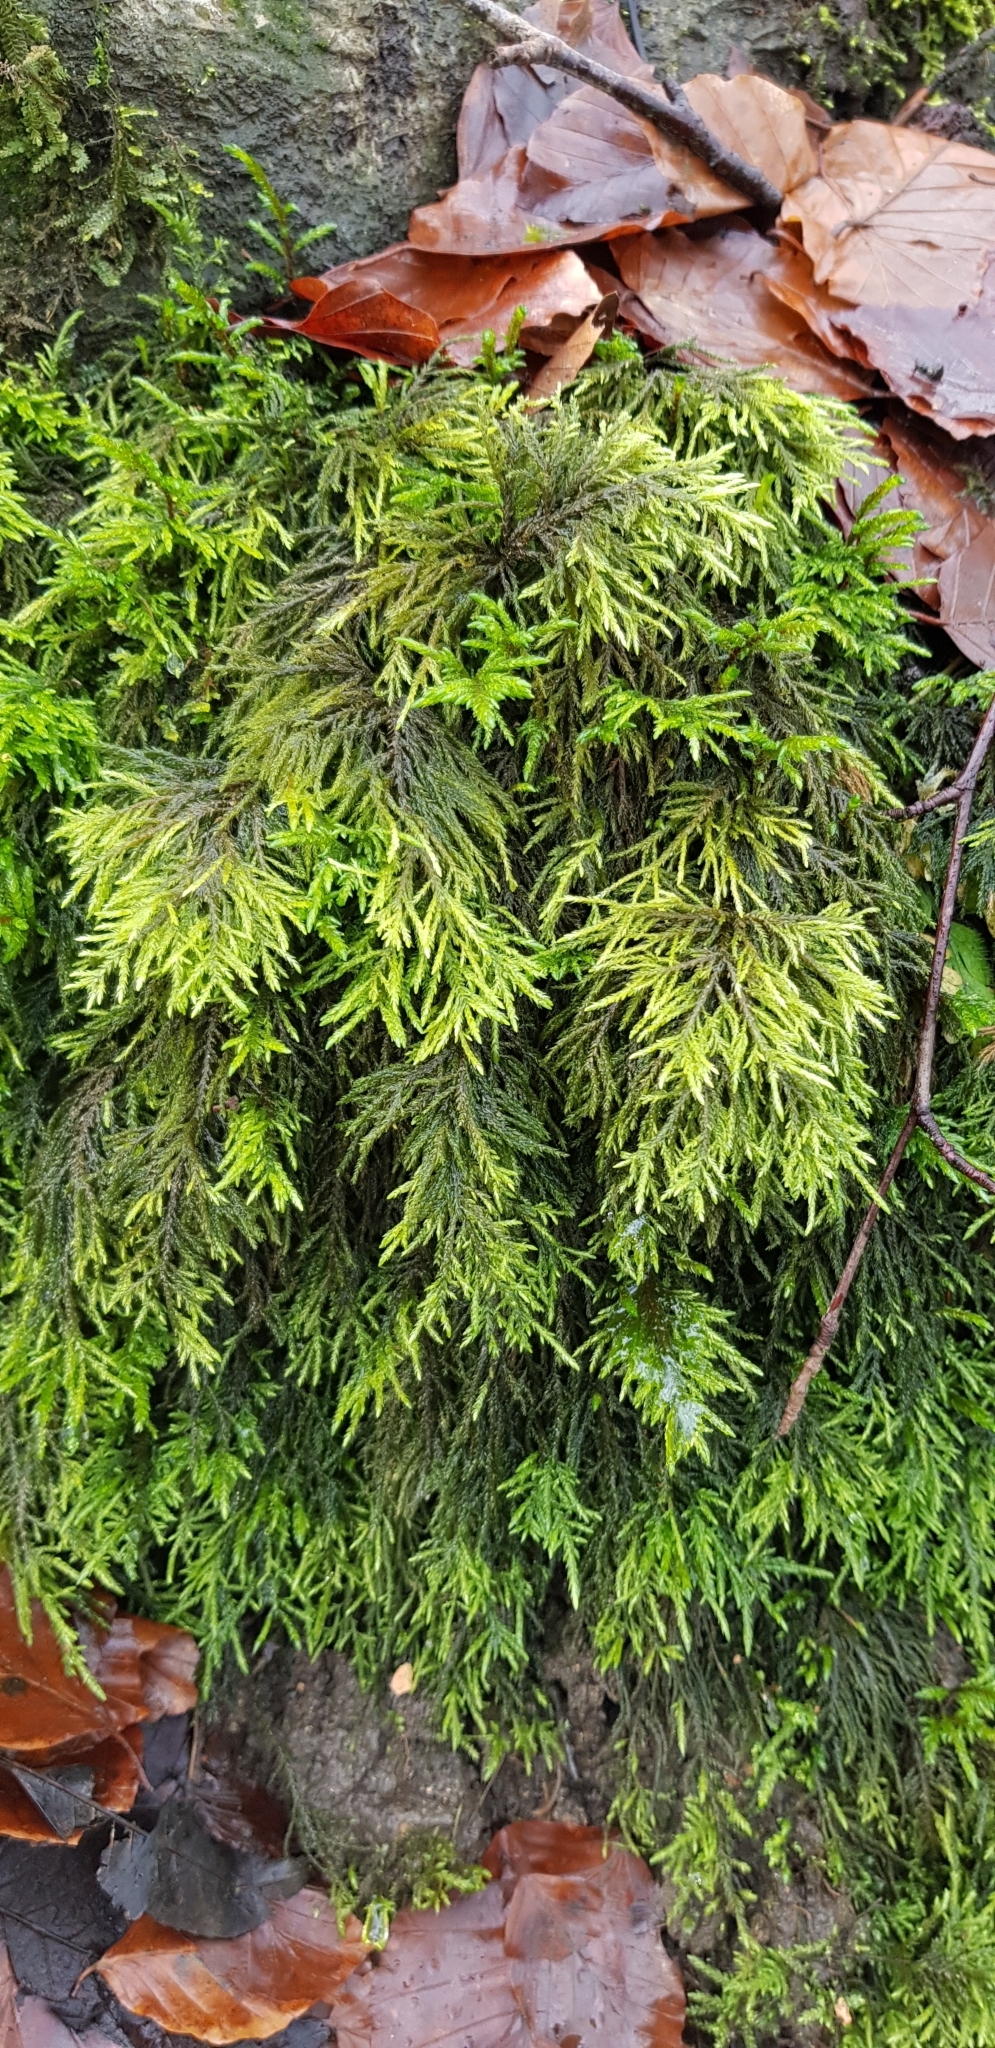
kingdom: Plantae
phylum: Bryophyta
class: Bryopsida
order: Hypnales
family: Neckeraceae
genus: Thamnobryum
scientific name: Thamnobryum alopecurum
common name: Fox-tail feather-moss
